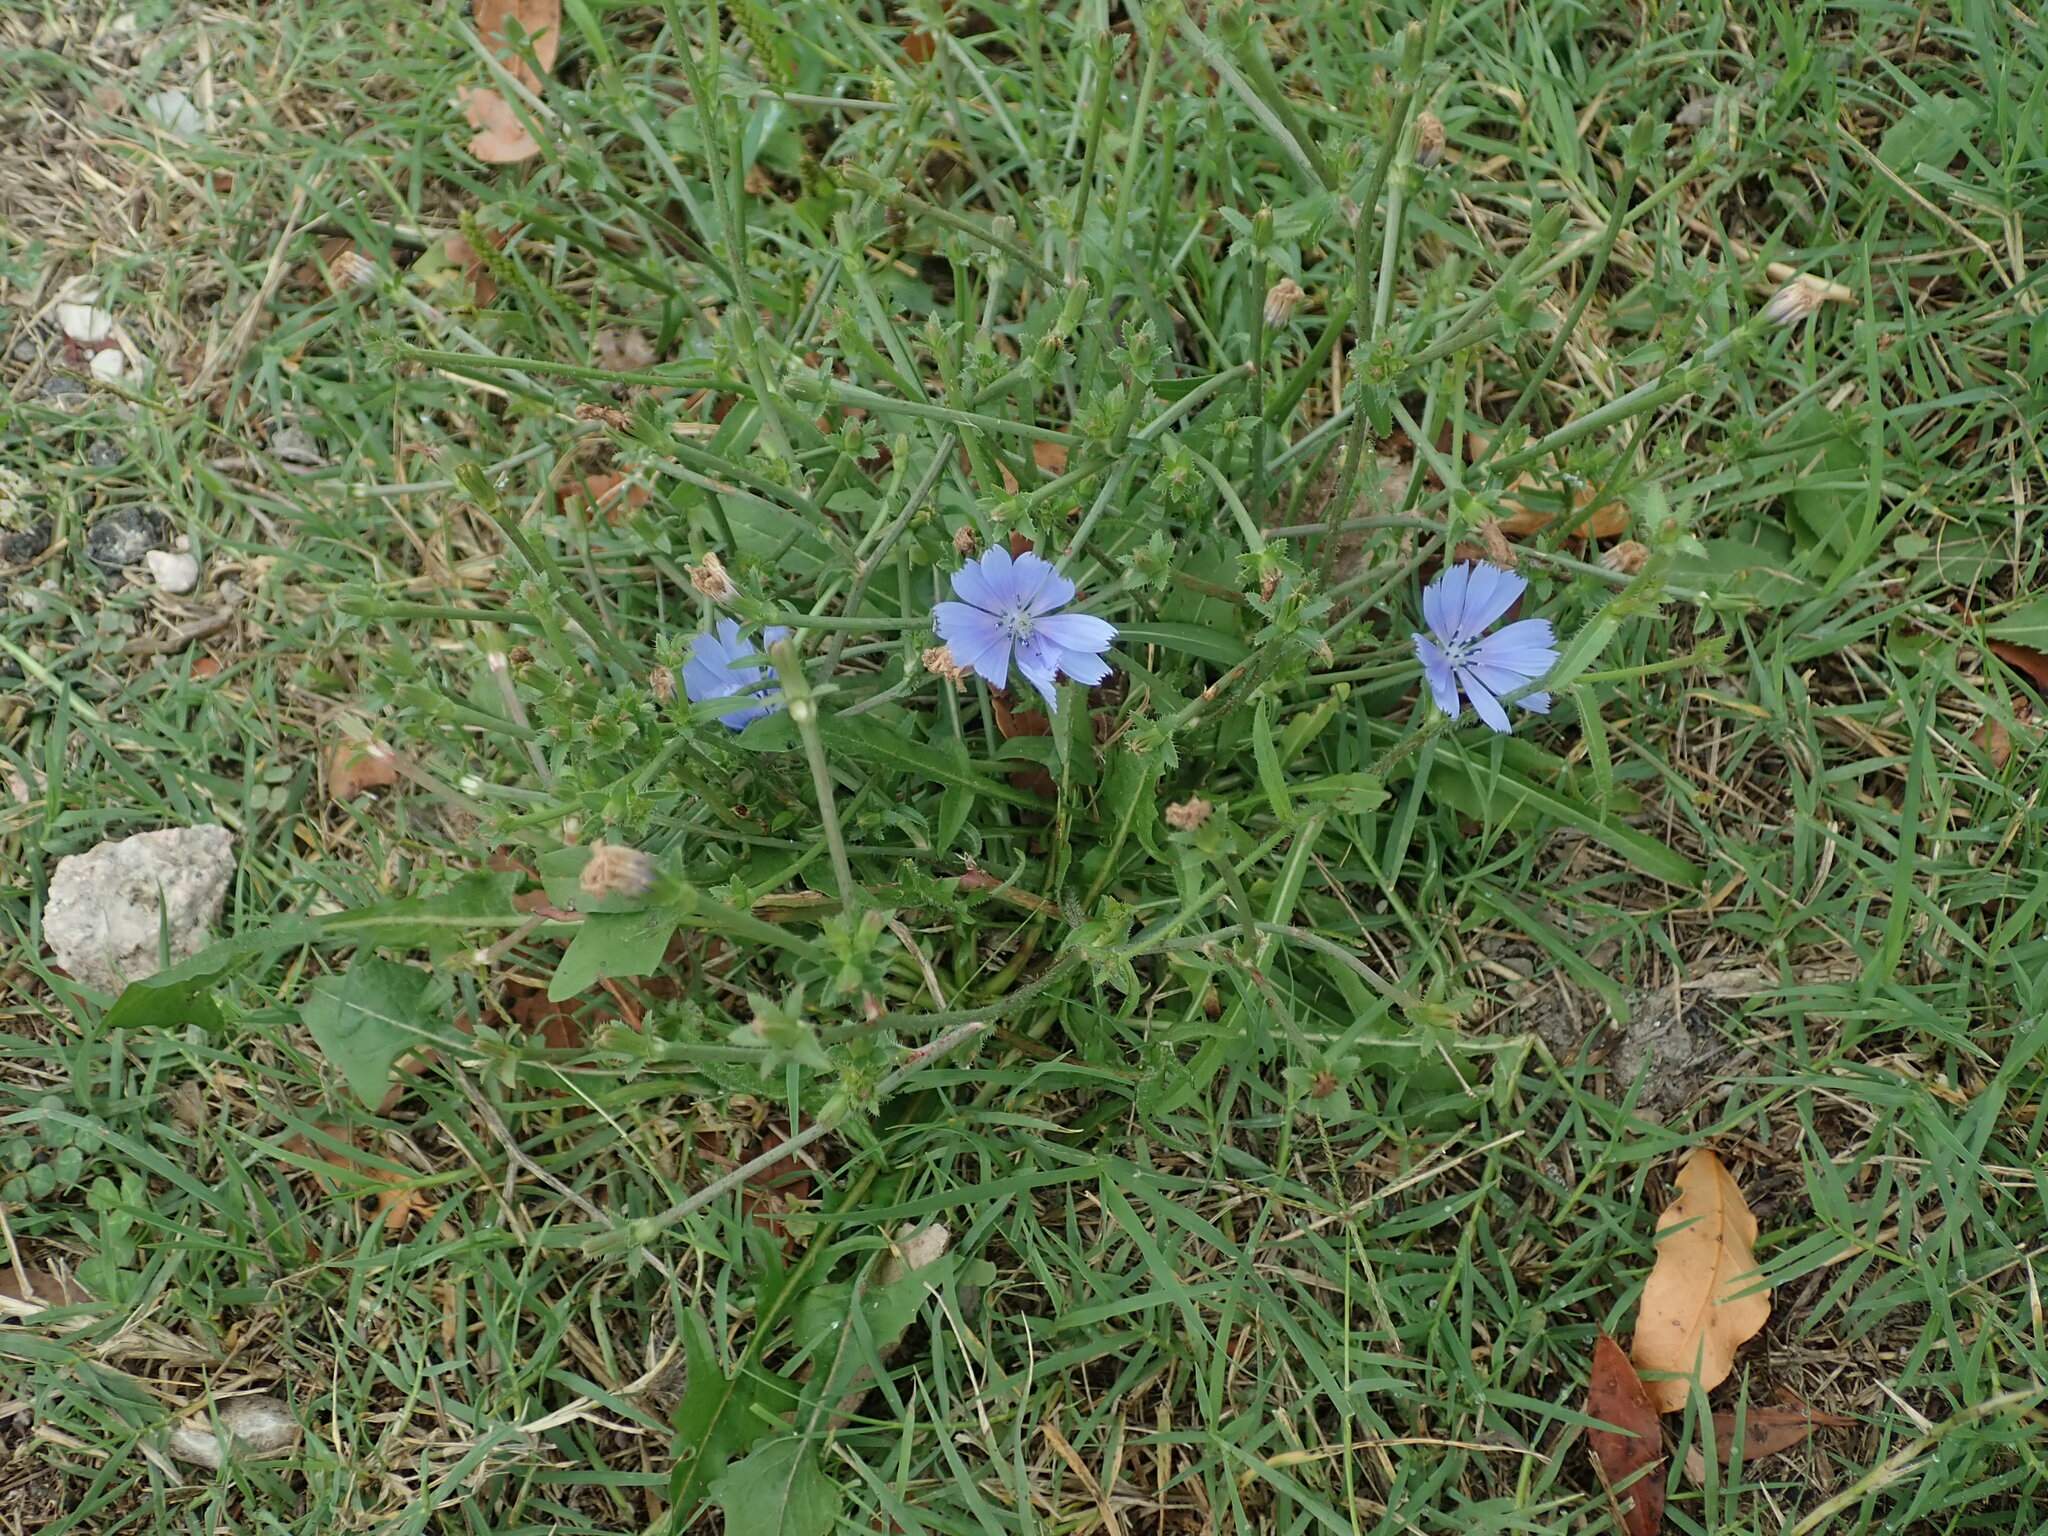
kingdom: Plantae
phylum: Tracheophyta
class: Magnoliopsida
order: Asterales
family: Asteraceae
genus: Cichorium
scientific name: Cichorium intybus
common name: Chicory
